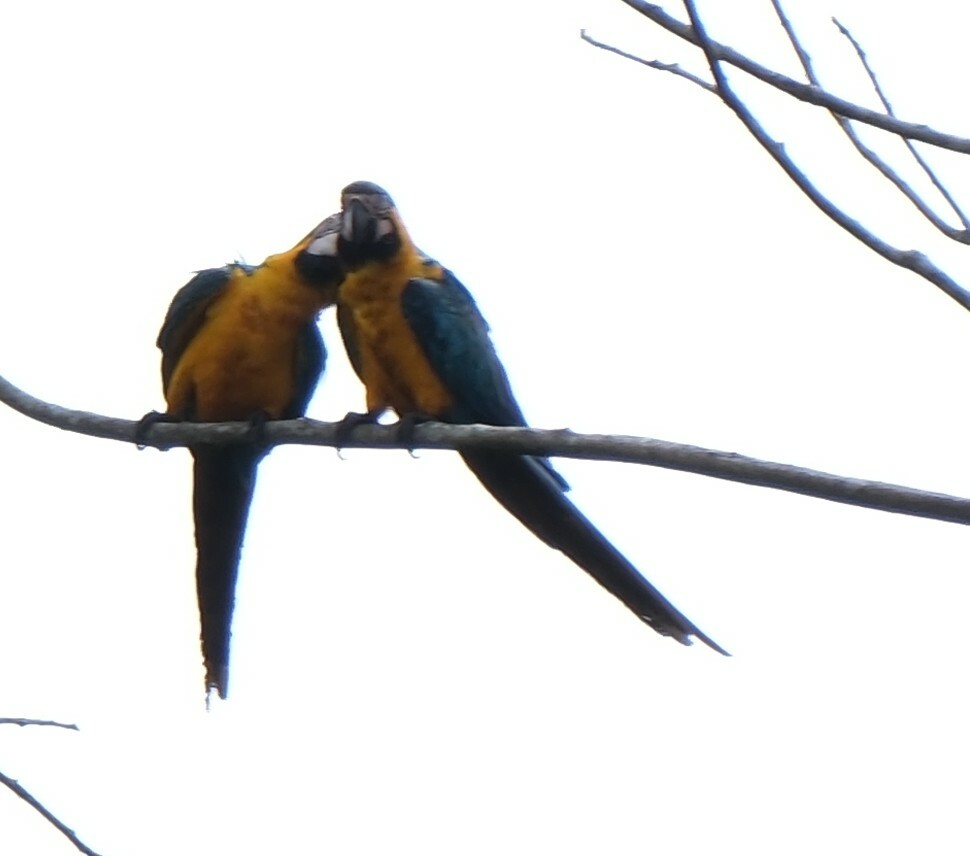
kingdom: Animalia
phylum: Chordata
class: Aves
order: Psittaciformes
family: Psittacidae
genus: Ara
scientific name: Ara ararauna
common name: Blue-and-yellow macaw
